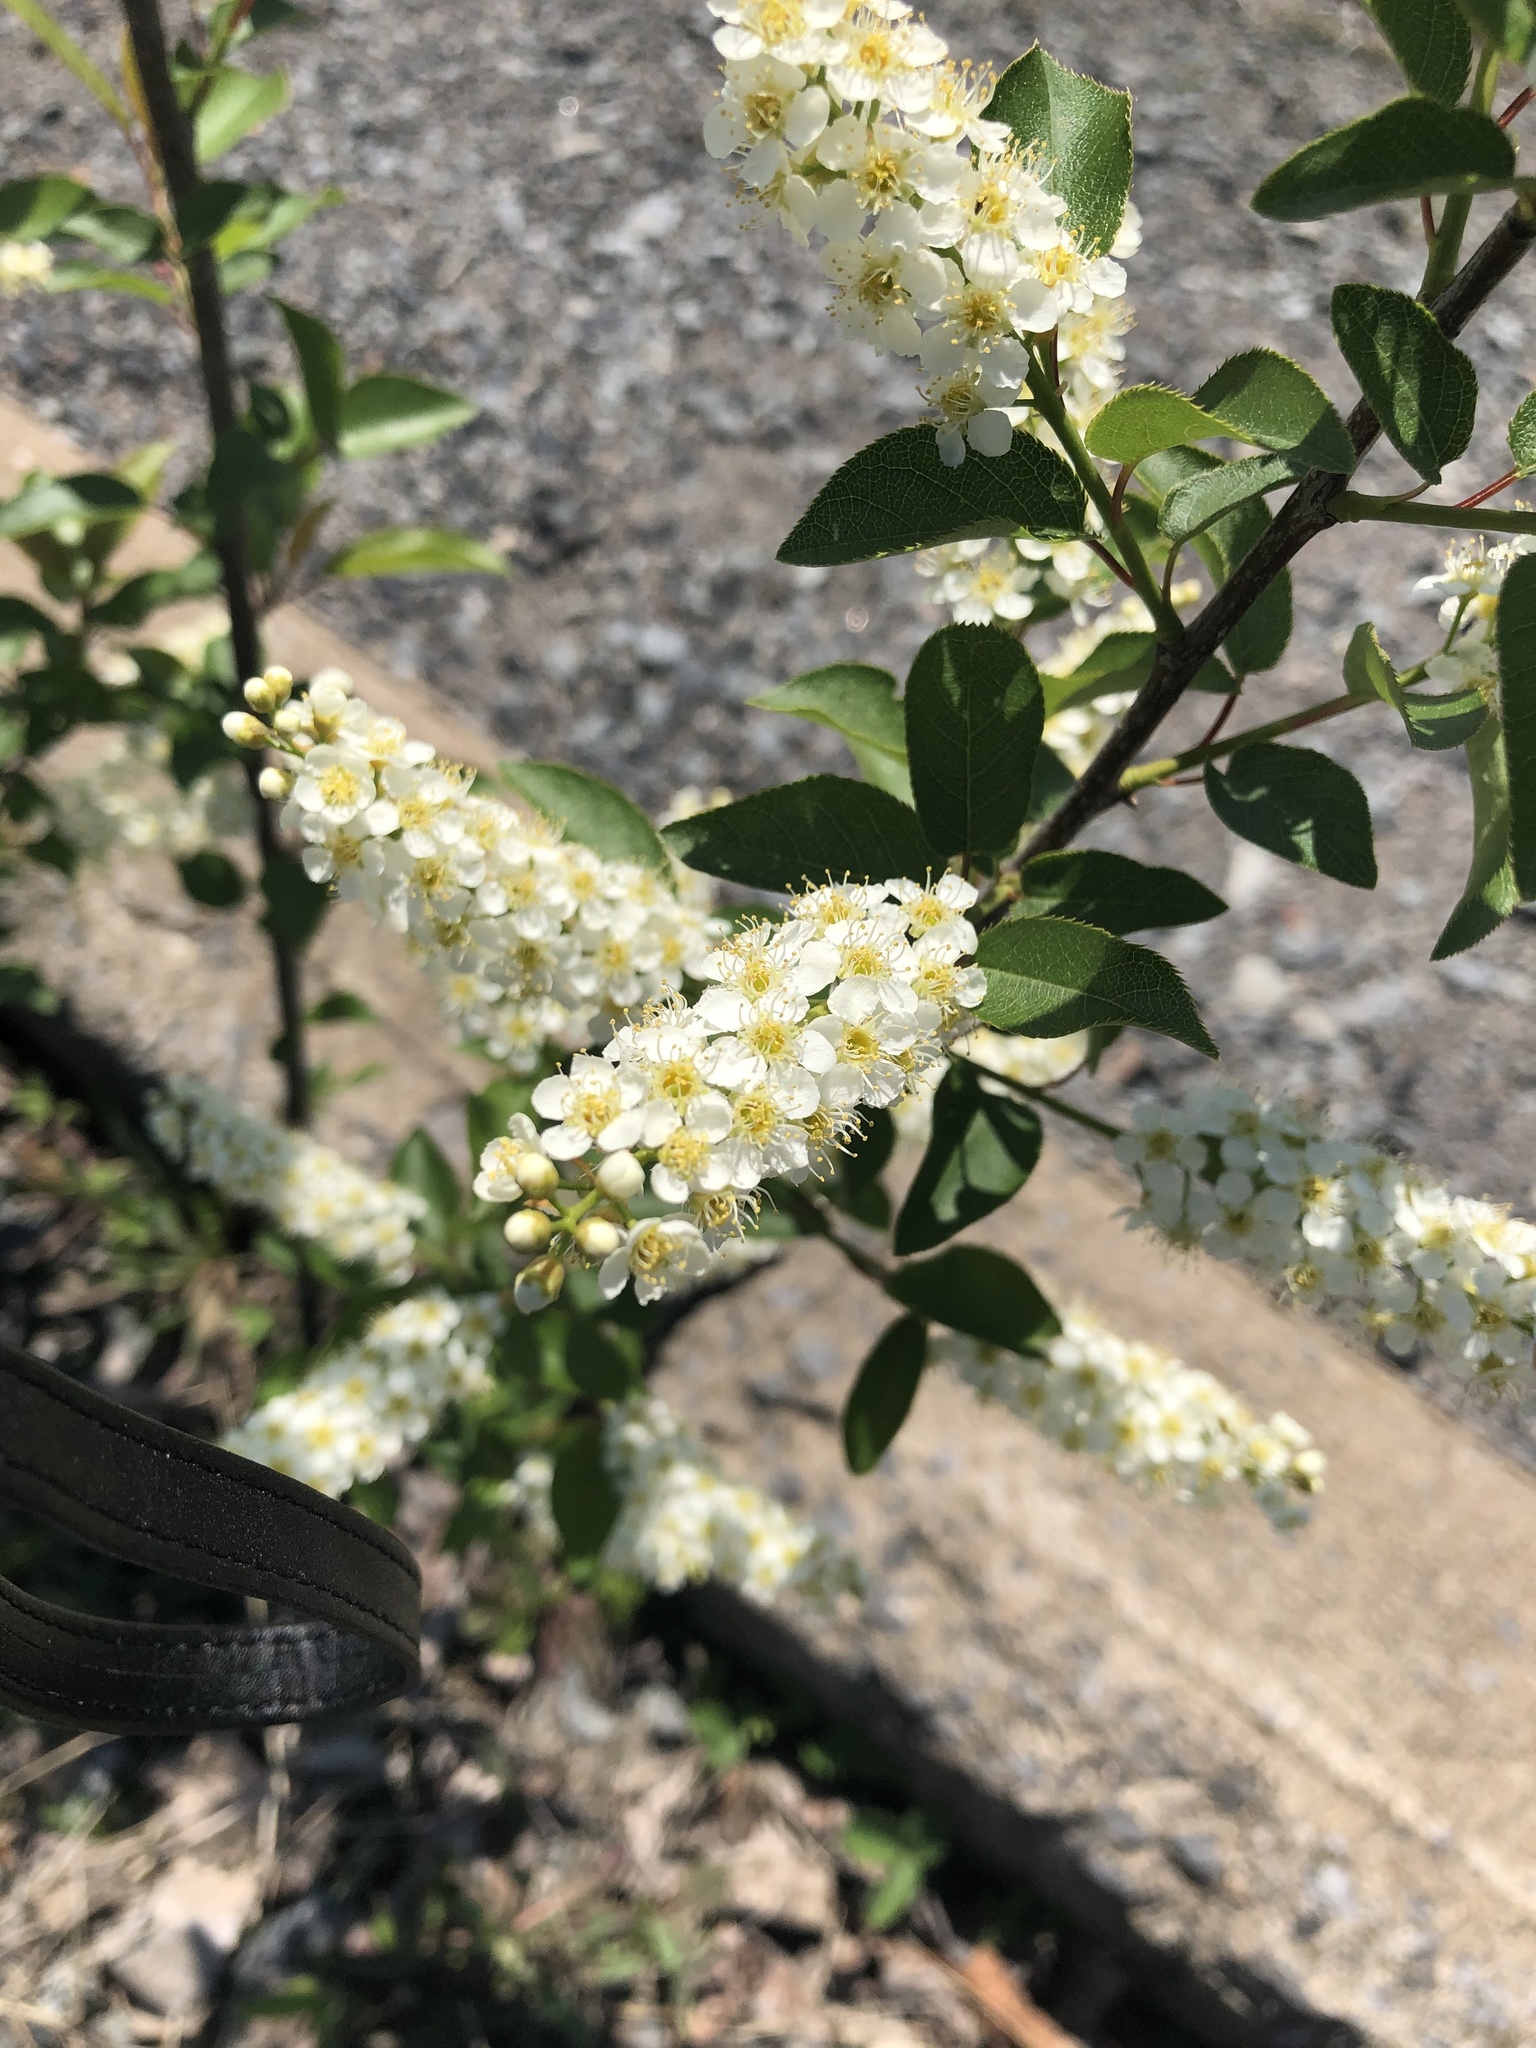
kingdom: Plantae
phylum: Tracheophyta
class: Magnoliopsida
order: Rosales
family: Rosaceae
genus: Prunus
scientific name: Prunus virginiana
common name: Chokecherry
